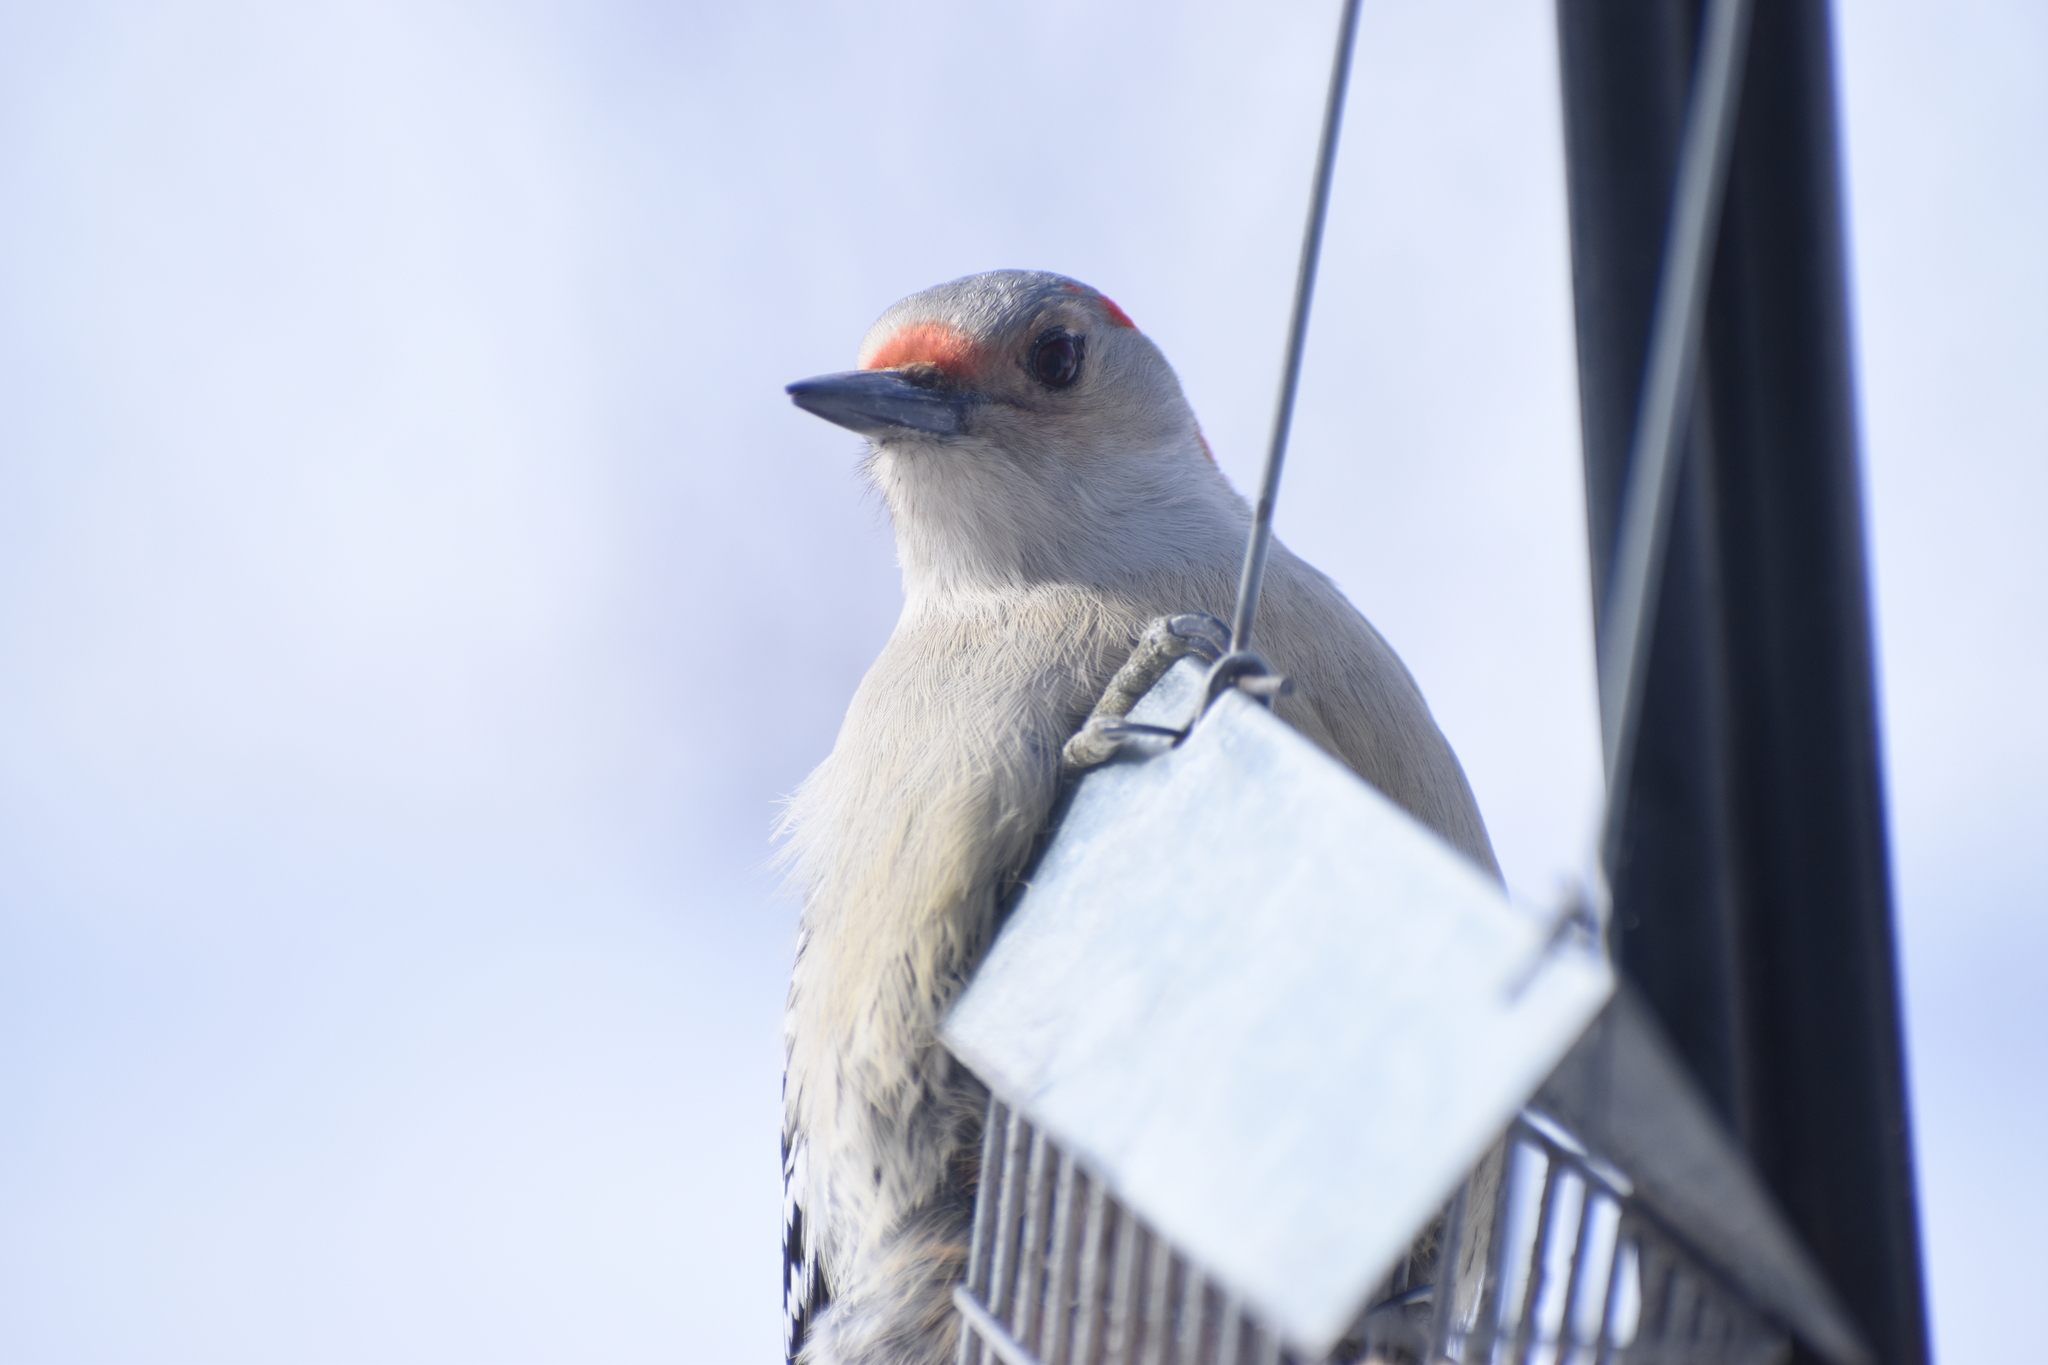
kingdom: Animalia
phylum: Chordata
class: Aves
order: Piciformes
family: Picidae
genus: Melanerpes
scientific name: Melanerpes carolinus
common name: Red-bellied woodpecker
